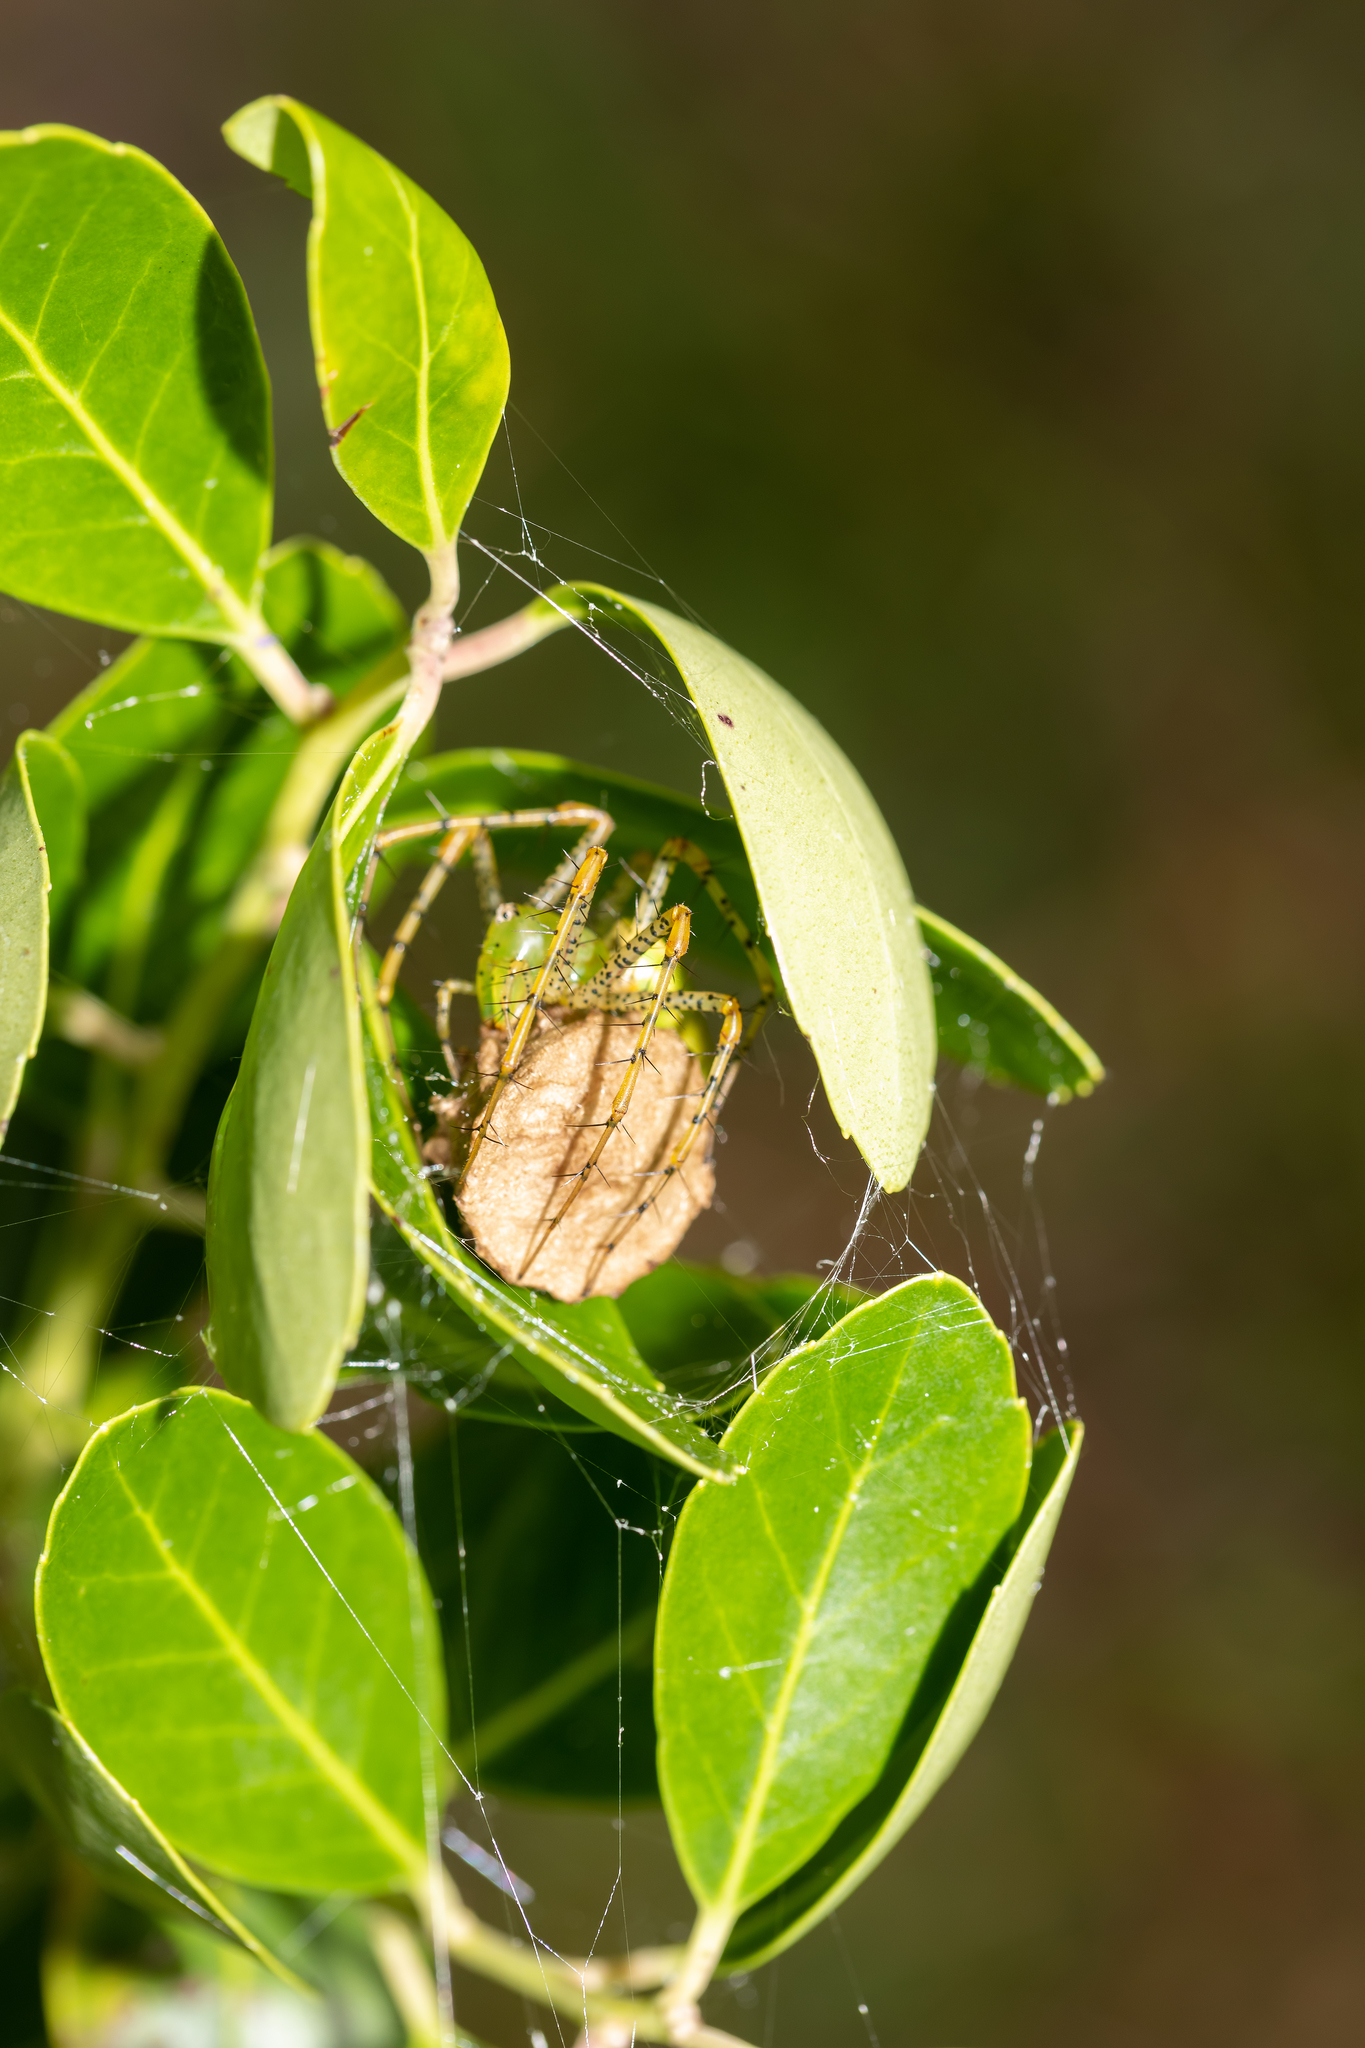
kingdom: Animalia
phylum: Arthropoda
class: Arachnida
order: Araneae
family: Oxyopidae
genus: Peucetia
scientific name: Peucetia viridans
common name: Lynx spiders
